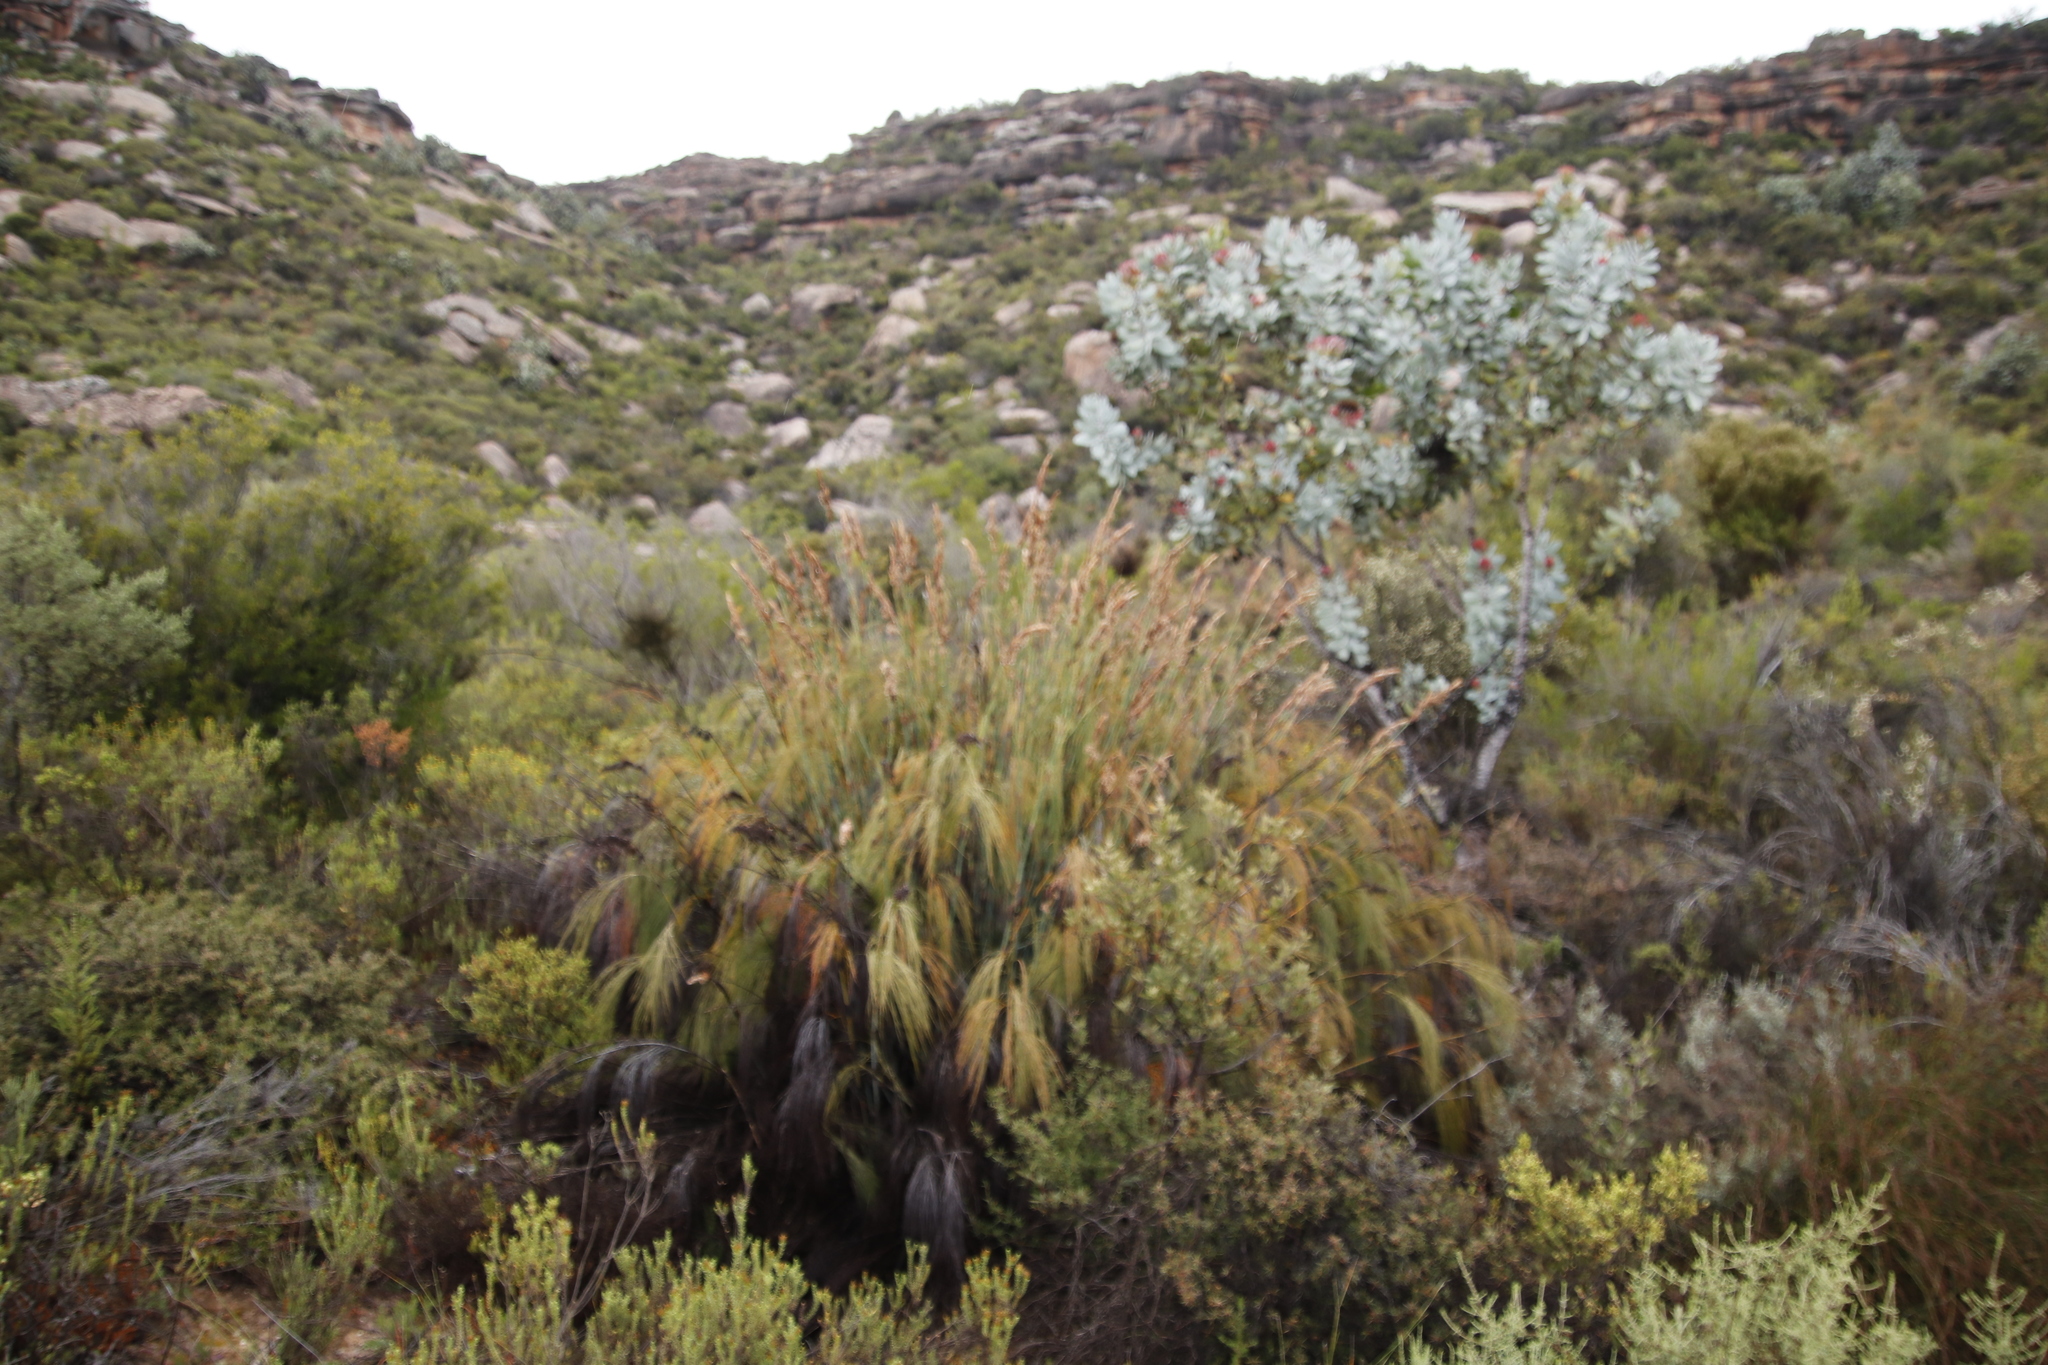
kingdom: Plantae
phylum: Tracheophyta
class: Liliopsida
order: Poales
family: Restionaceae
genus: Cannomois
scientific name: Cannomois robusta
